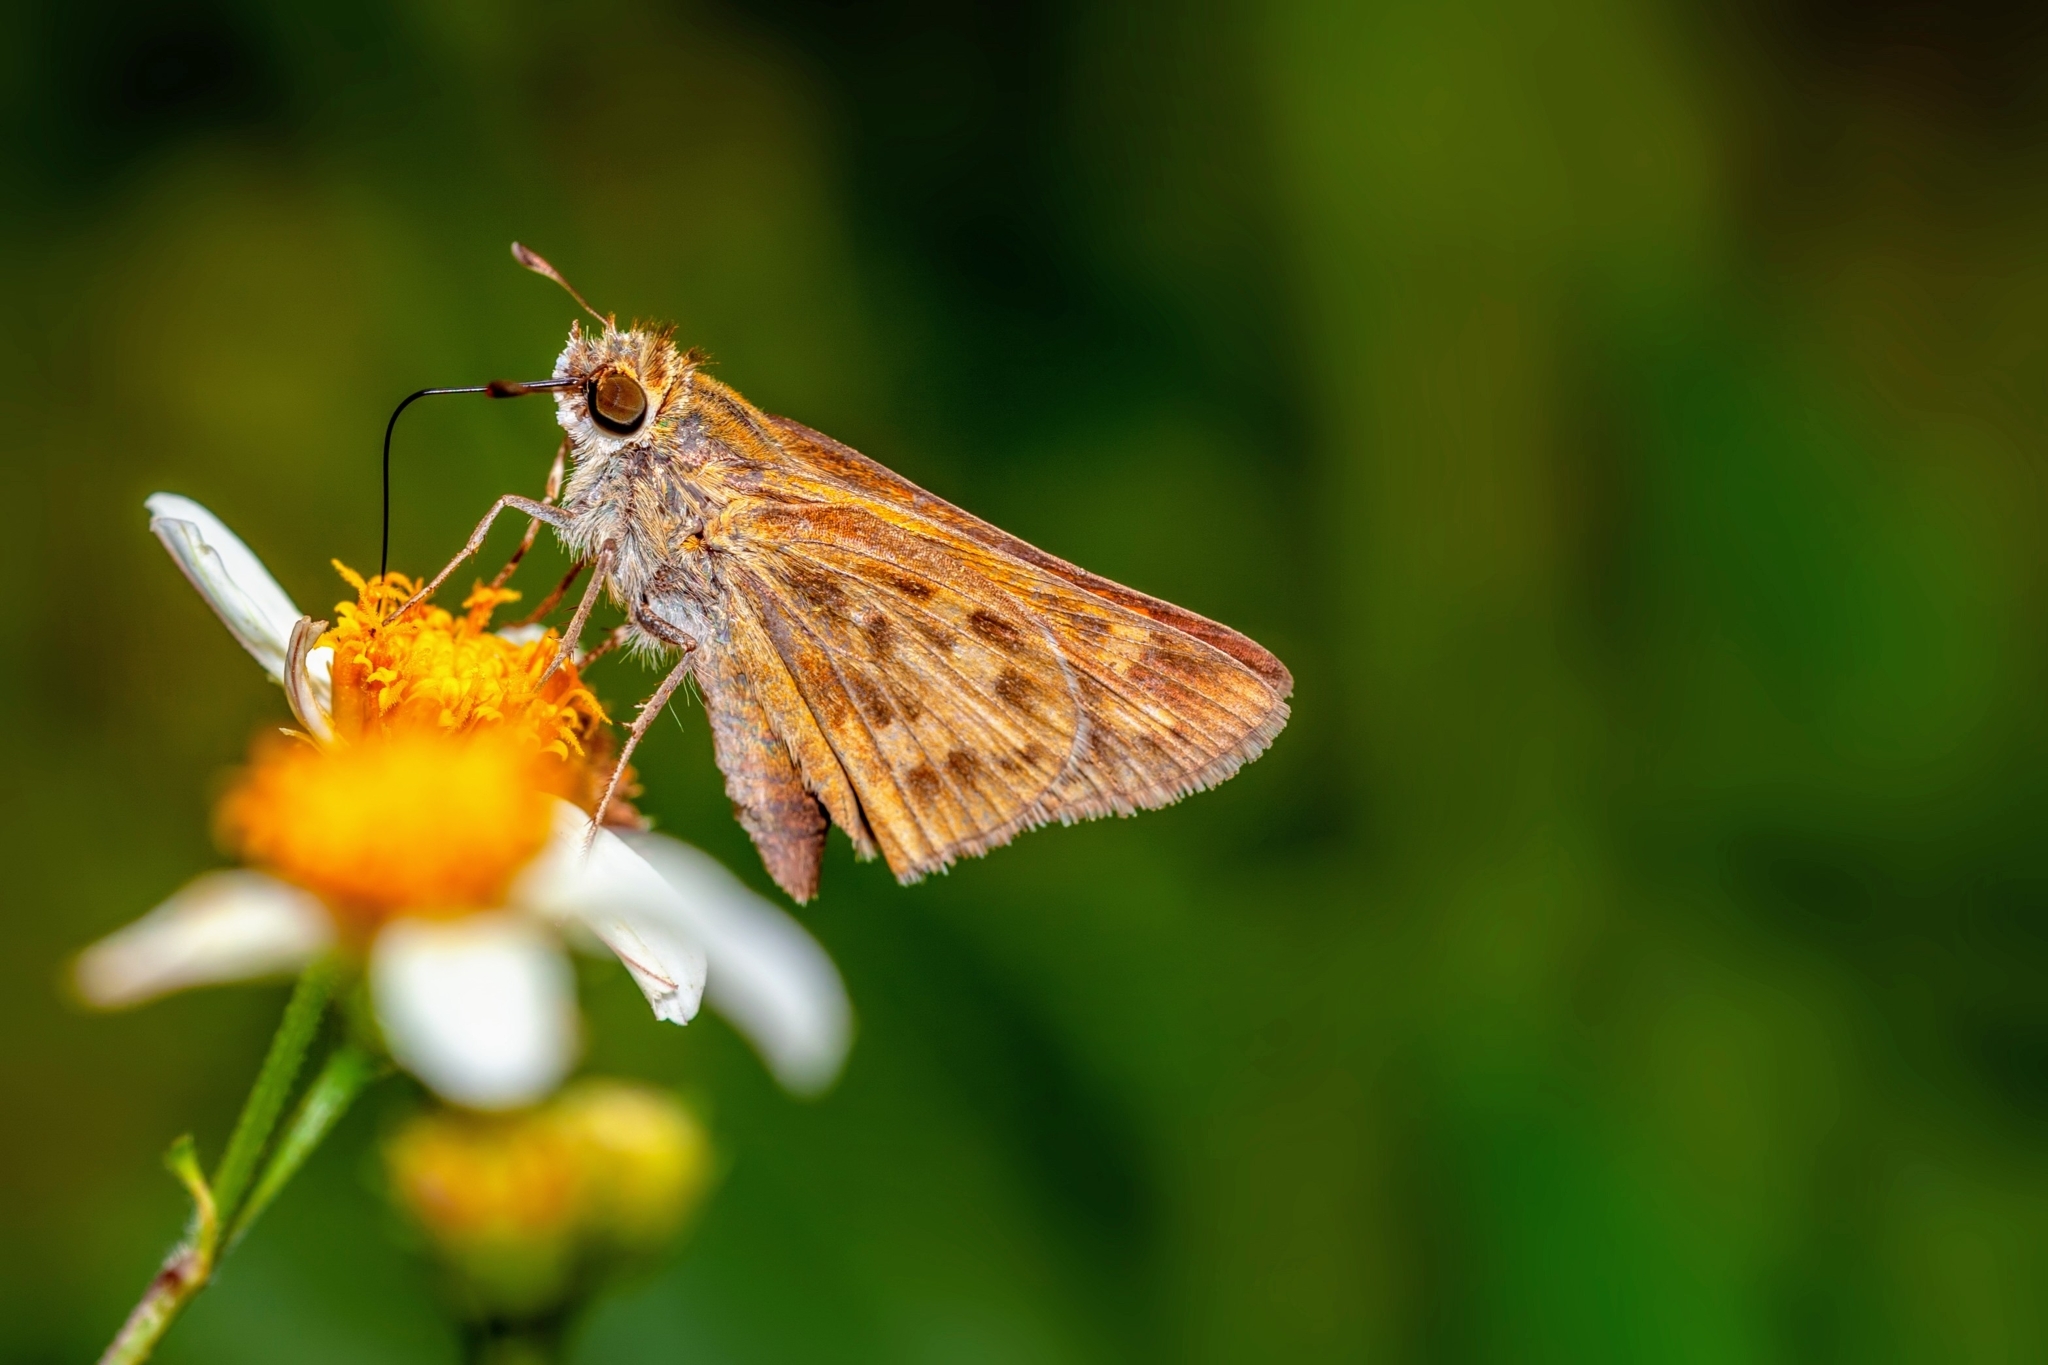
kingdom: Animalia
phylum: Arthropoda
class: Insecta
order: Lepidoptera
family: Hesperiidae
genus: Hylephila
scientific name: Hylephila phyleus
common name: Fiery skipper
